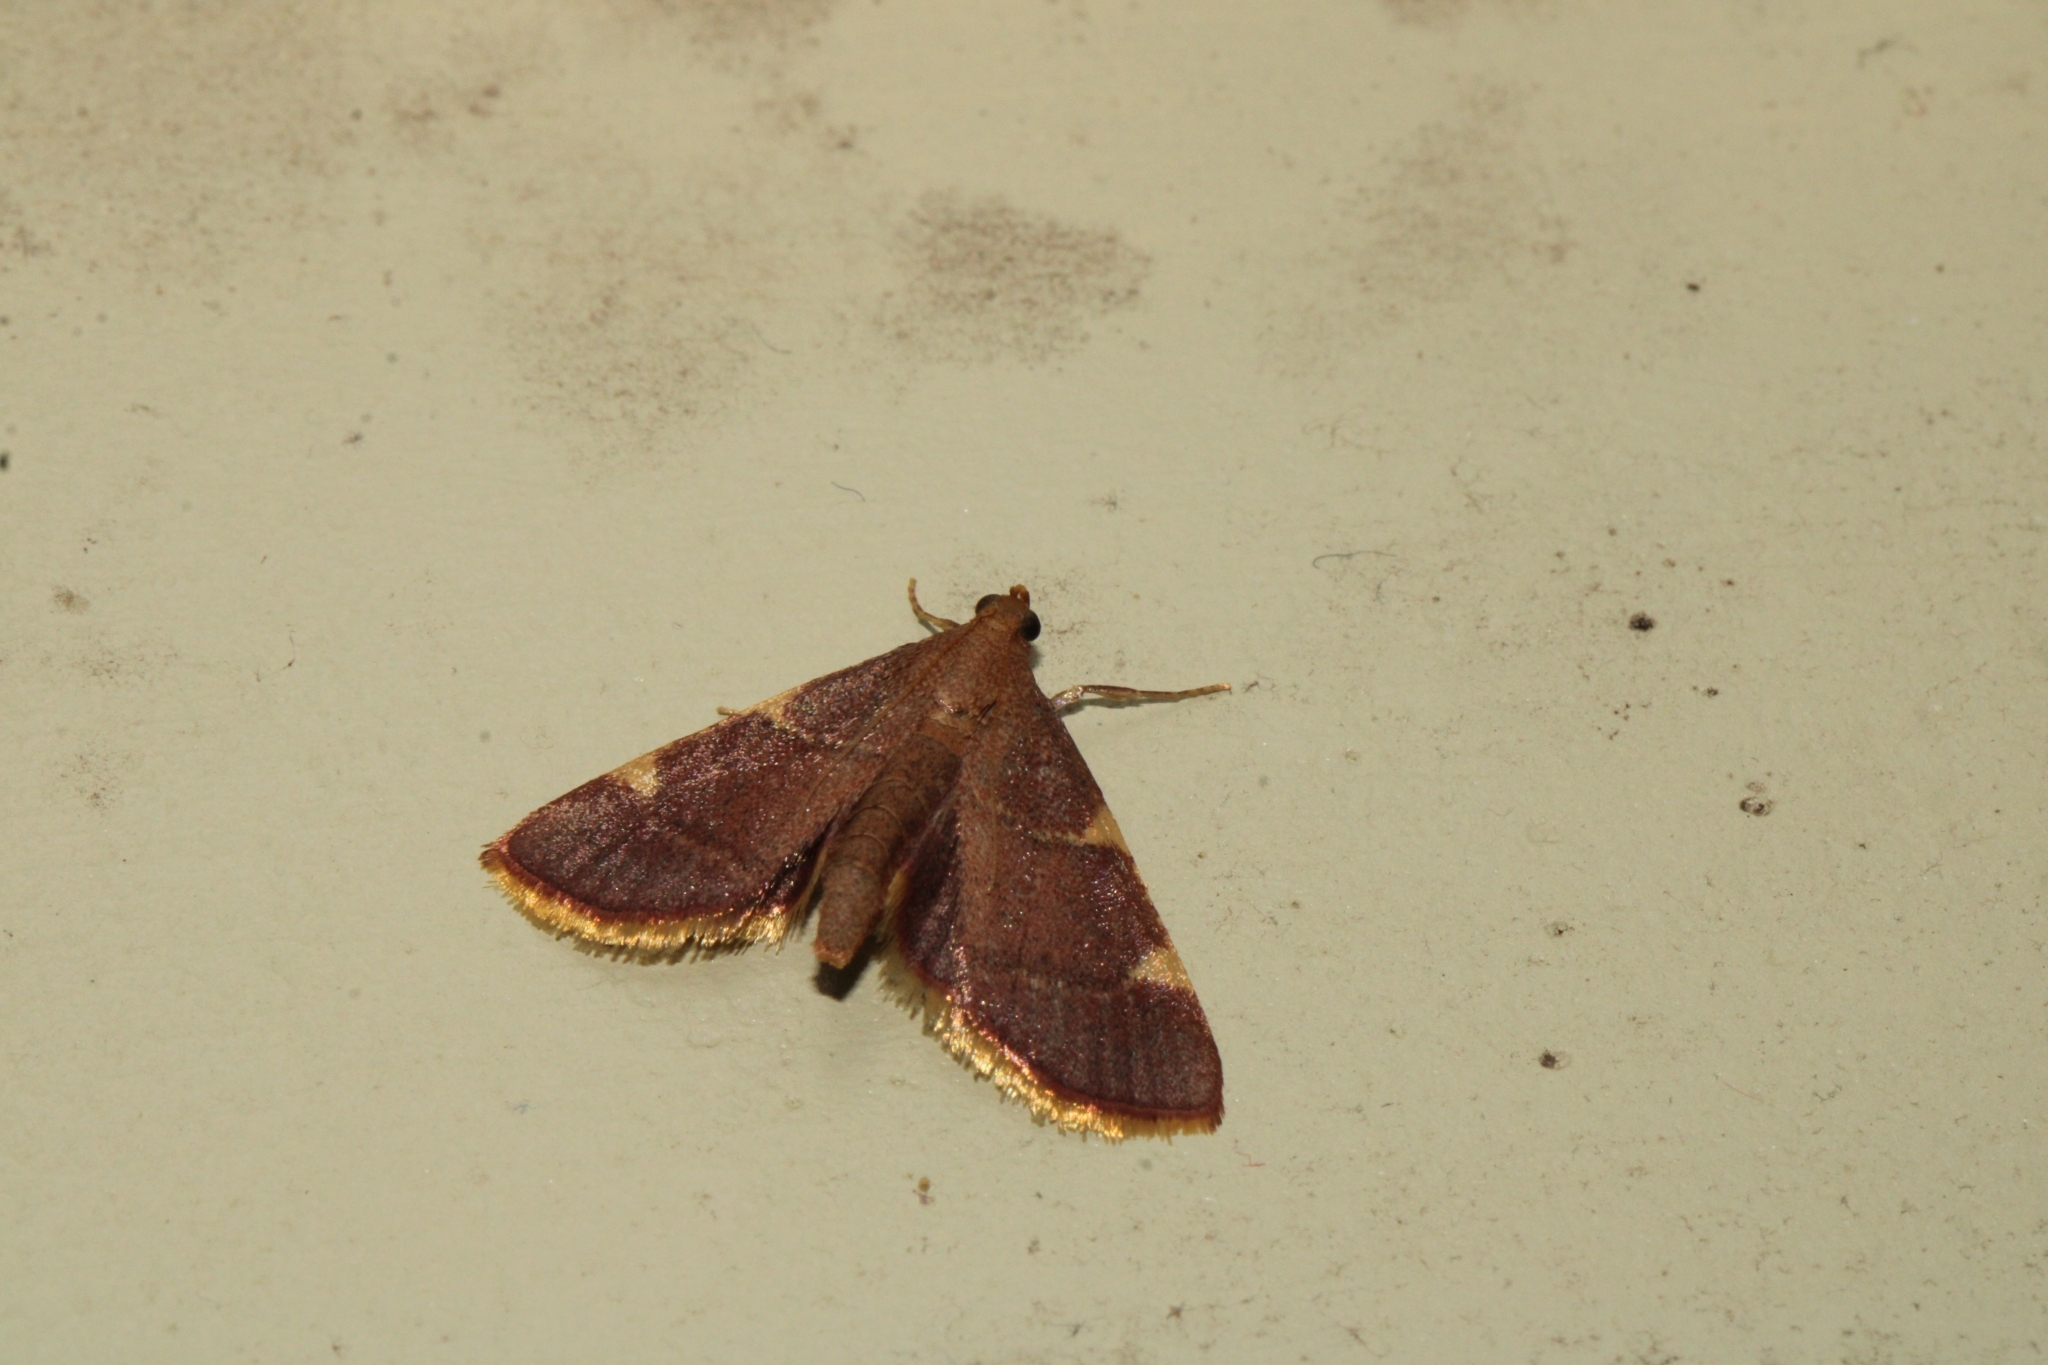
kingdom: Animalia
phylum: Arthropoda
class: Insecta
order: Lepidoptera
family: Pyralidae
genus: Hypsopygia
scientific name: Hypsopygia olinalis
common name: Yellow-fringed dolichomia moth
